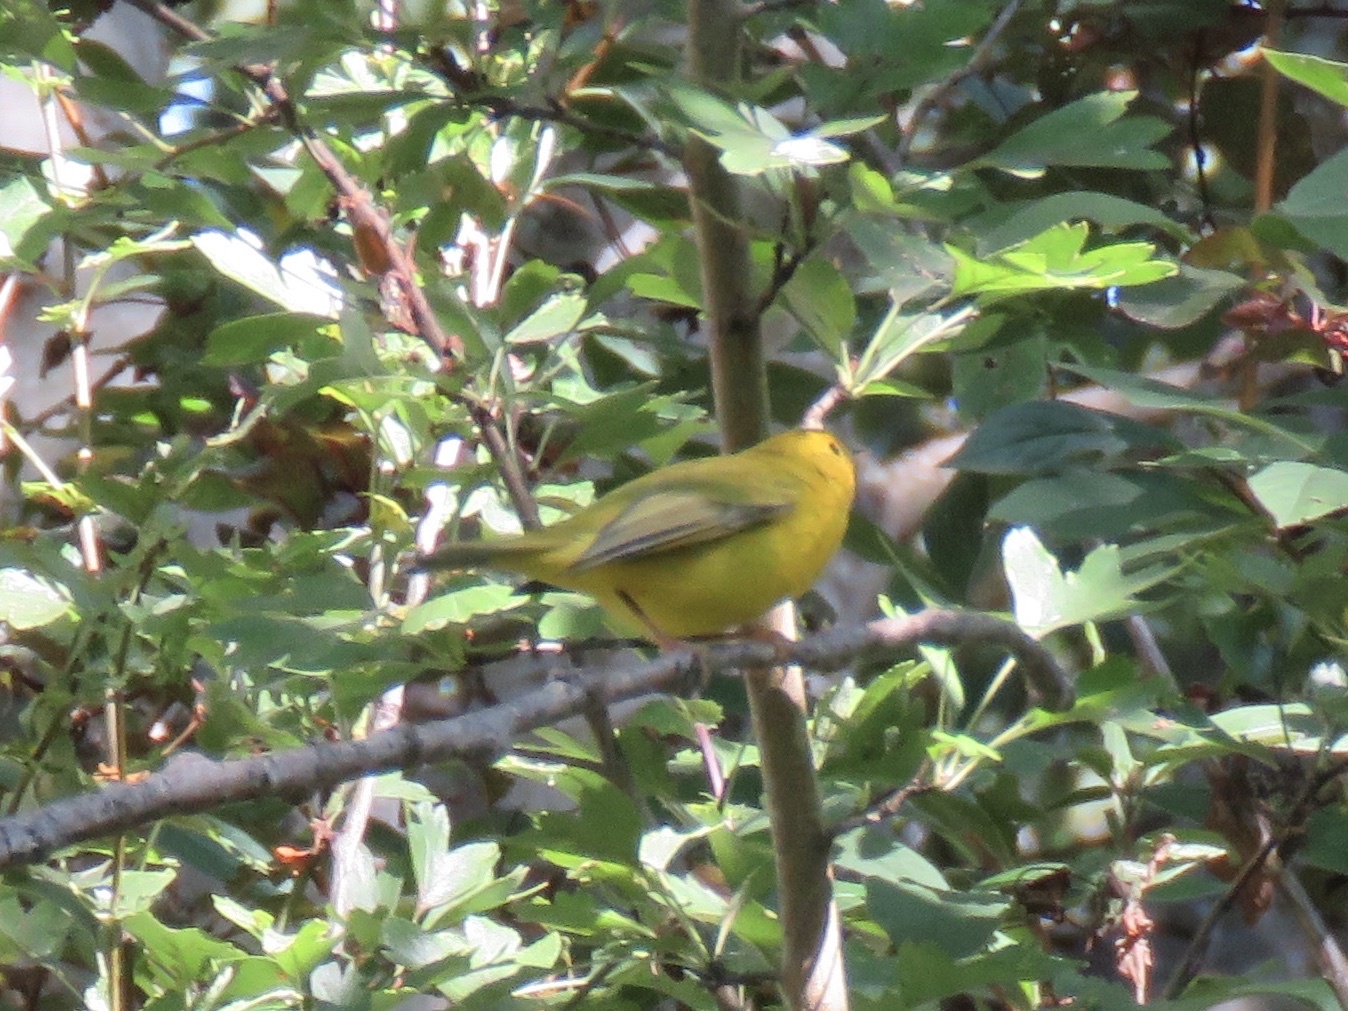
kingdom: Animalia
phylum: Chordata
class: Aves
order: Passeriformes
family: Parulidae
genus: Cardellina
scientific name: Cardellina pusilla
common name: Wilson's warbler
